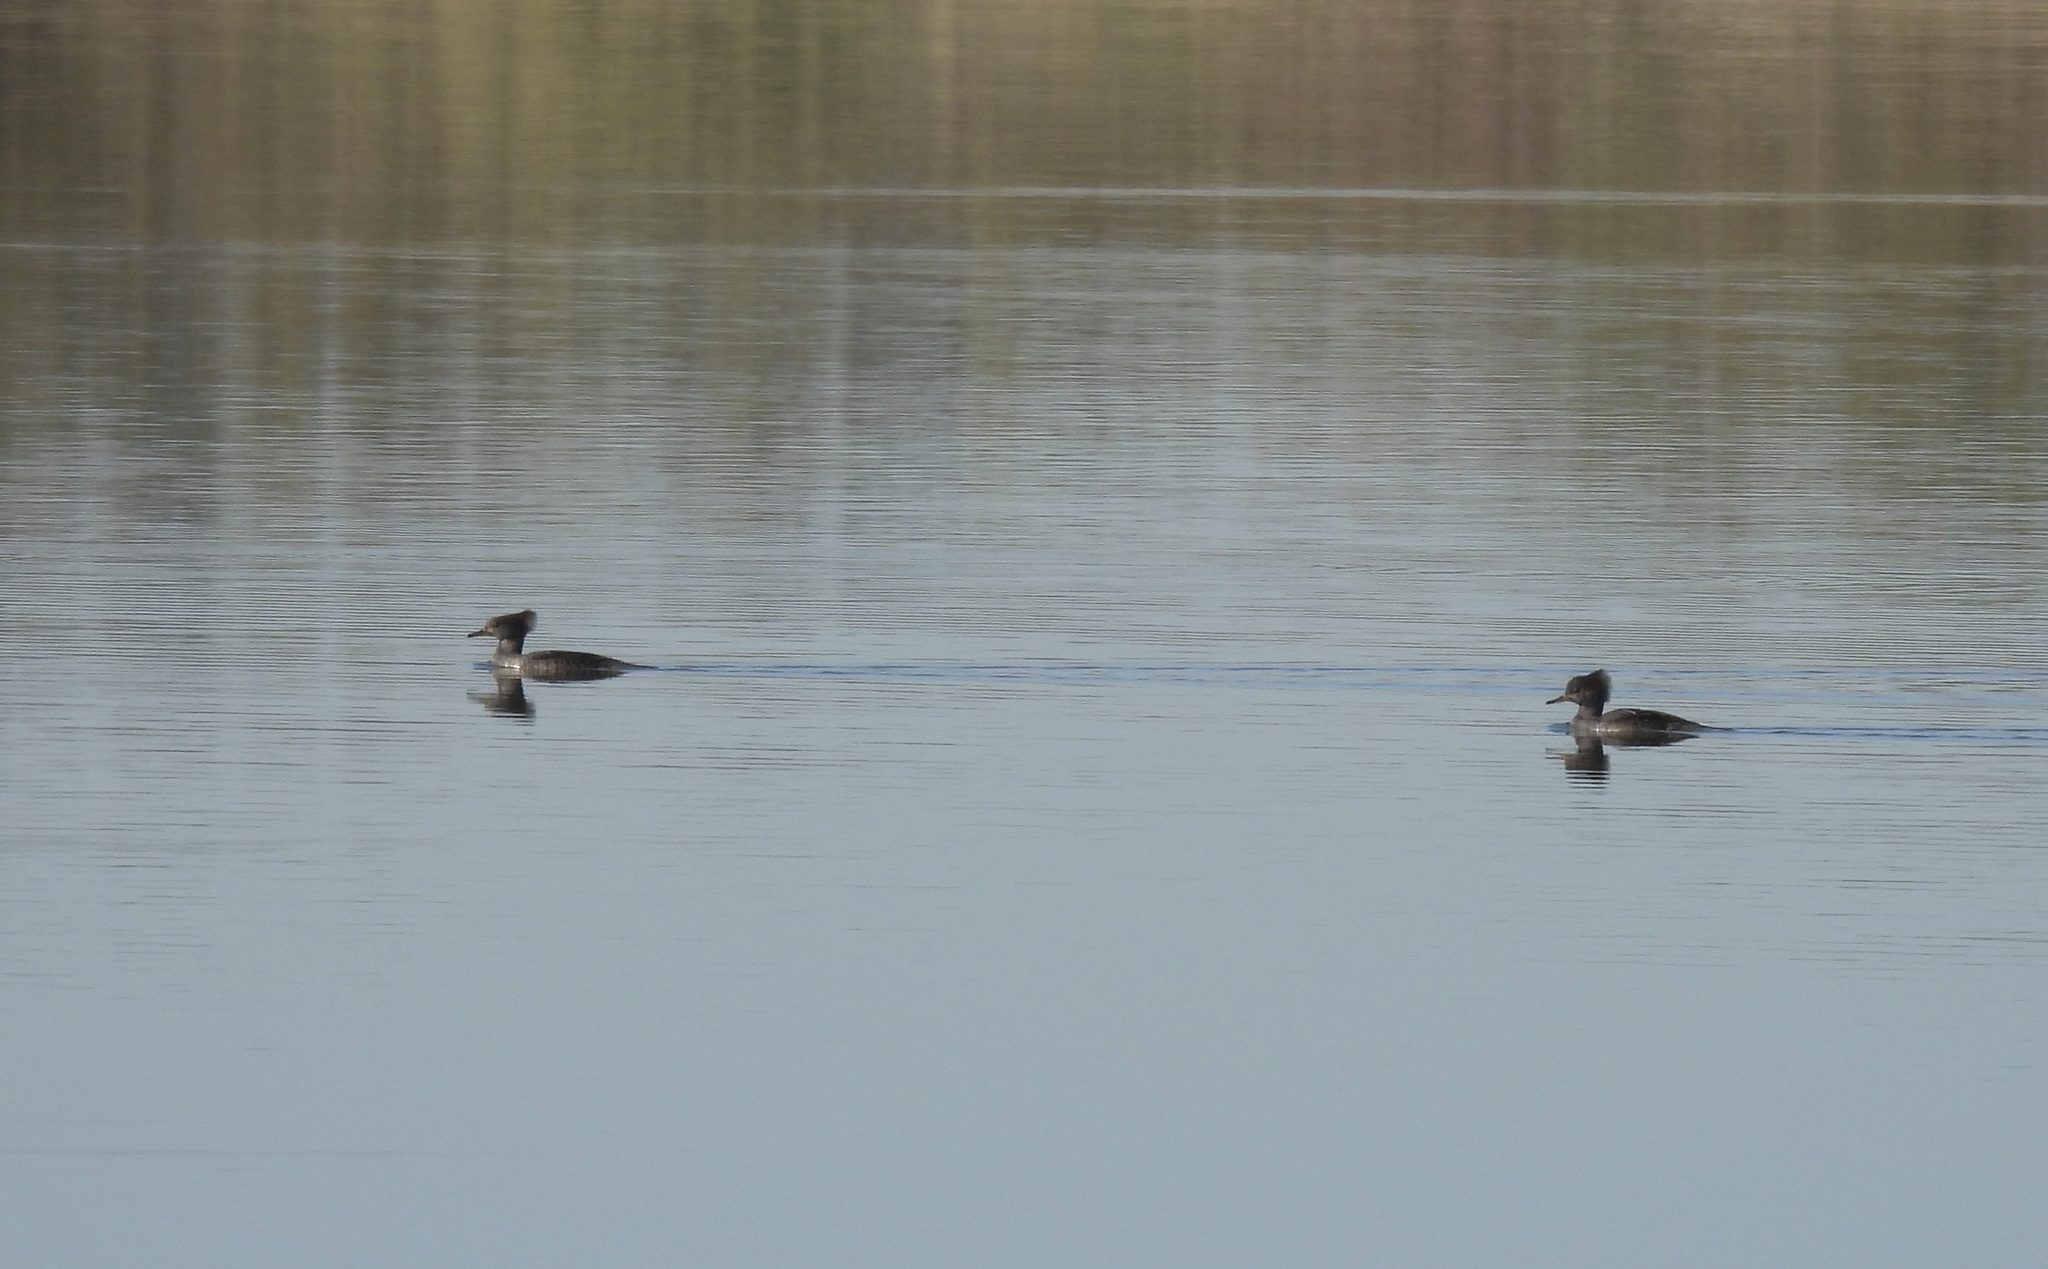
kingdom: Animalia
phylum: Chordata
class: Aves
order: Anseriformes
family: Anatidae
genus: Lophodytes
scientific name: Lophodytes cucullatus
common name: Hooded merganser
